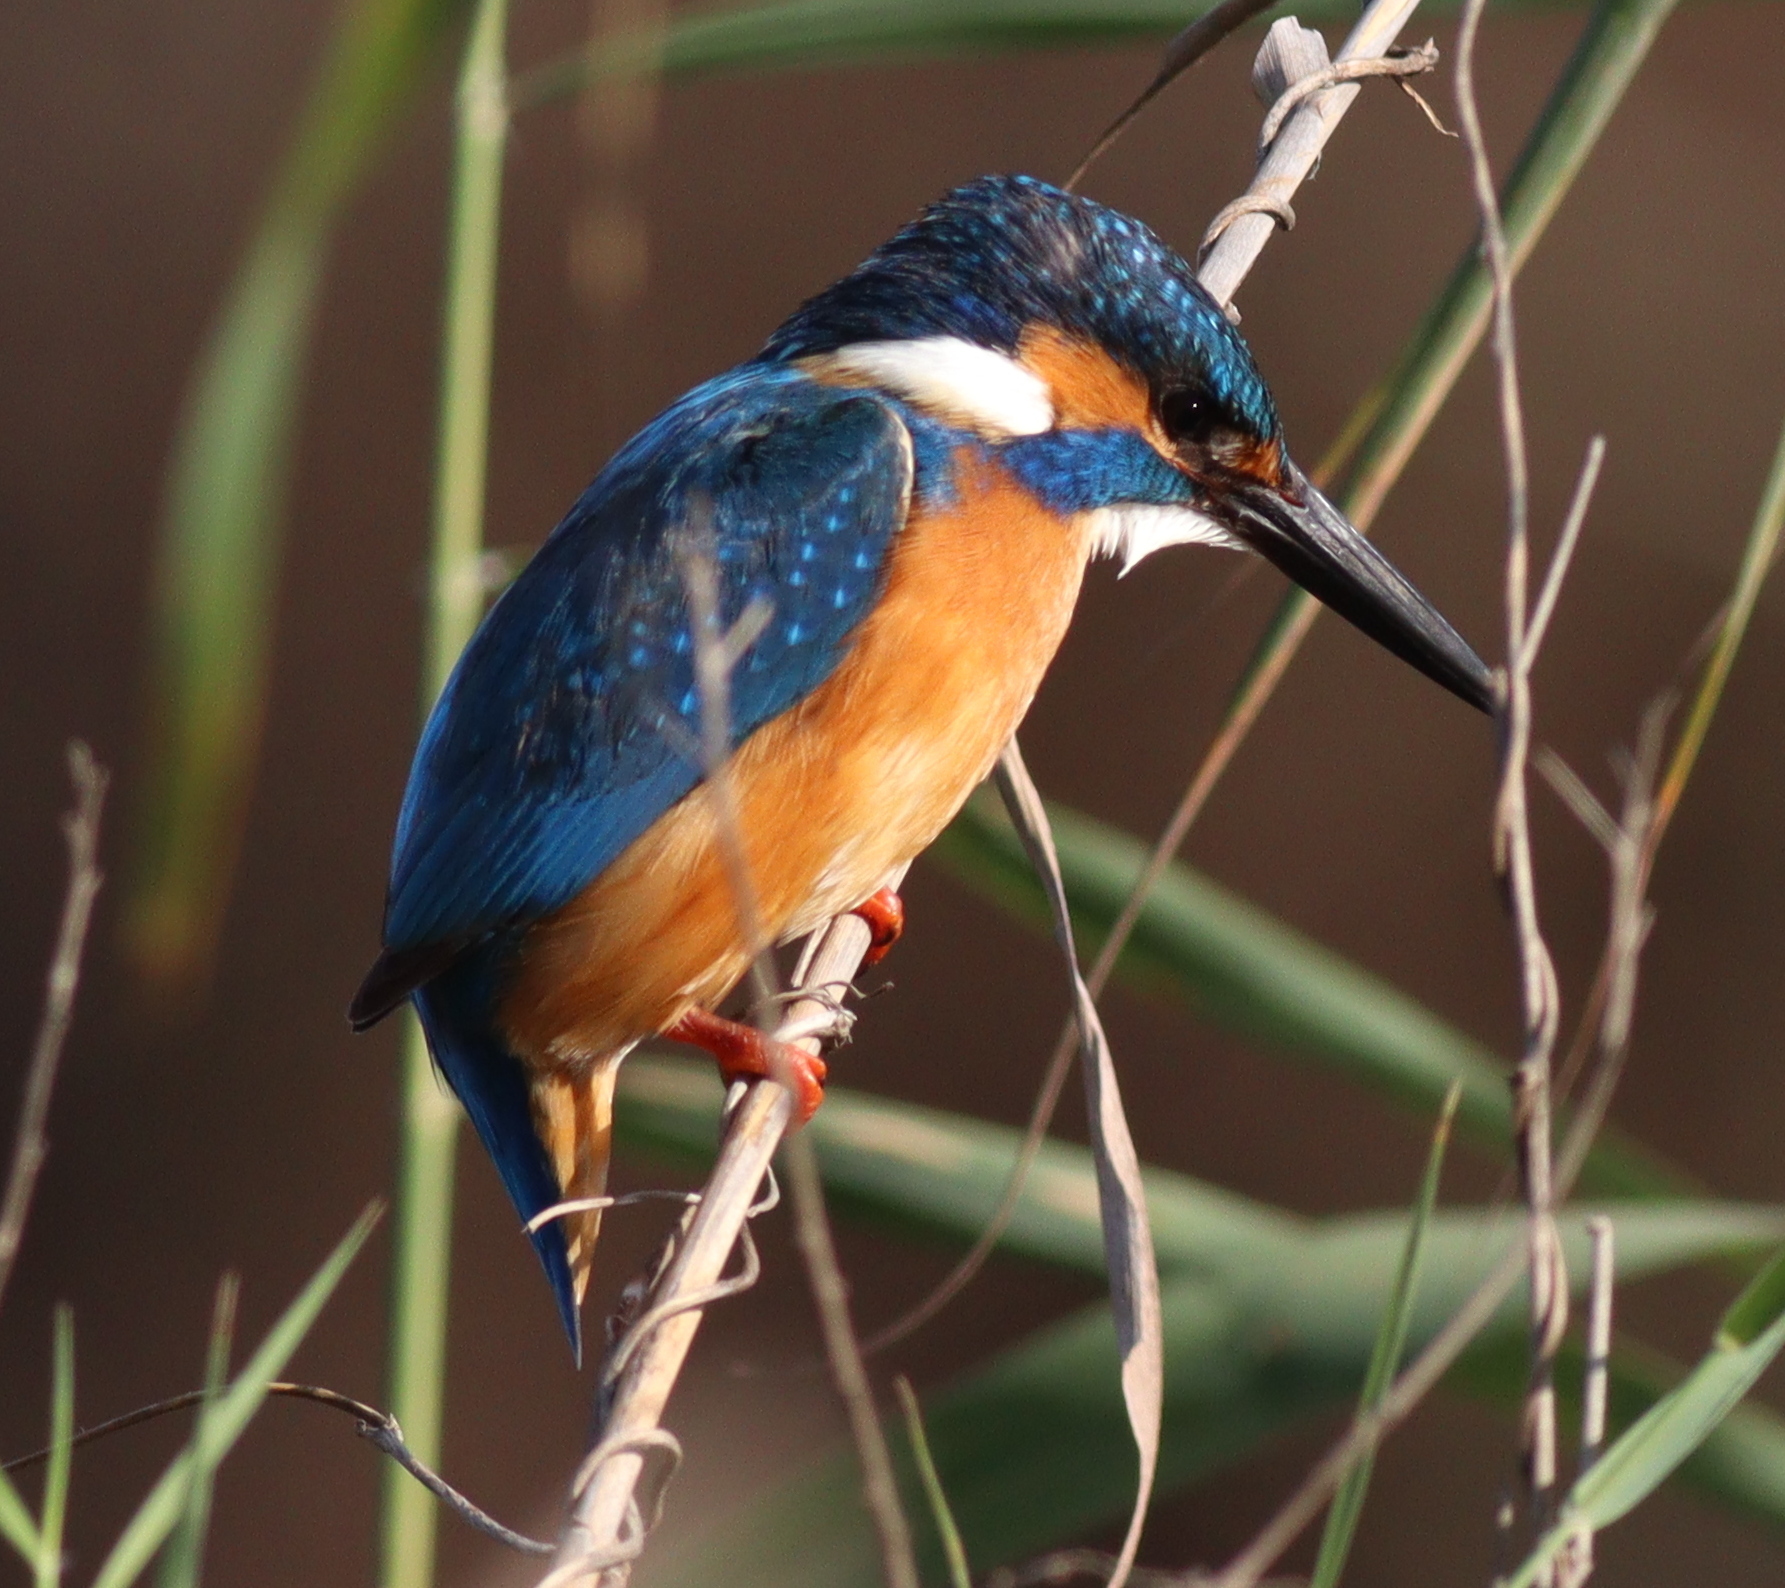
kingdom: Animalia
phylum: Chordata
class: Aves
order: Coraciiformes
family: Alcedinidae
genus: Alcedo
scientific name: Alcedo atthis
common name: Common kingfisher
